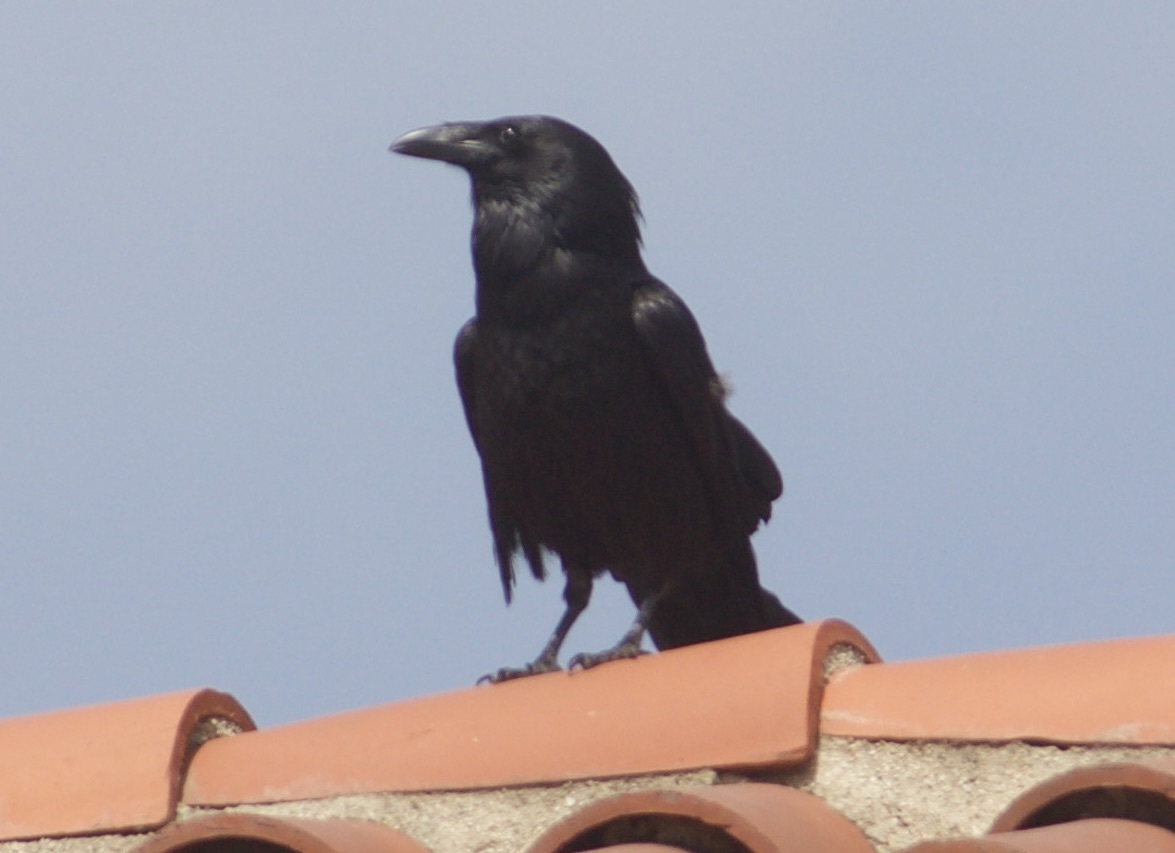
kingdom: Animalia
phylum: Chordata
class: Aves
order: Passeriformes
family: Corvidae
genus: Corvus
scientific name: Corvus corax
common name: Common raven
